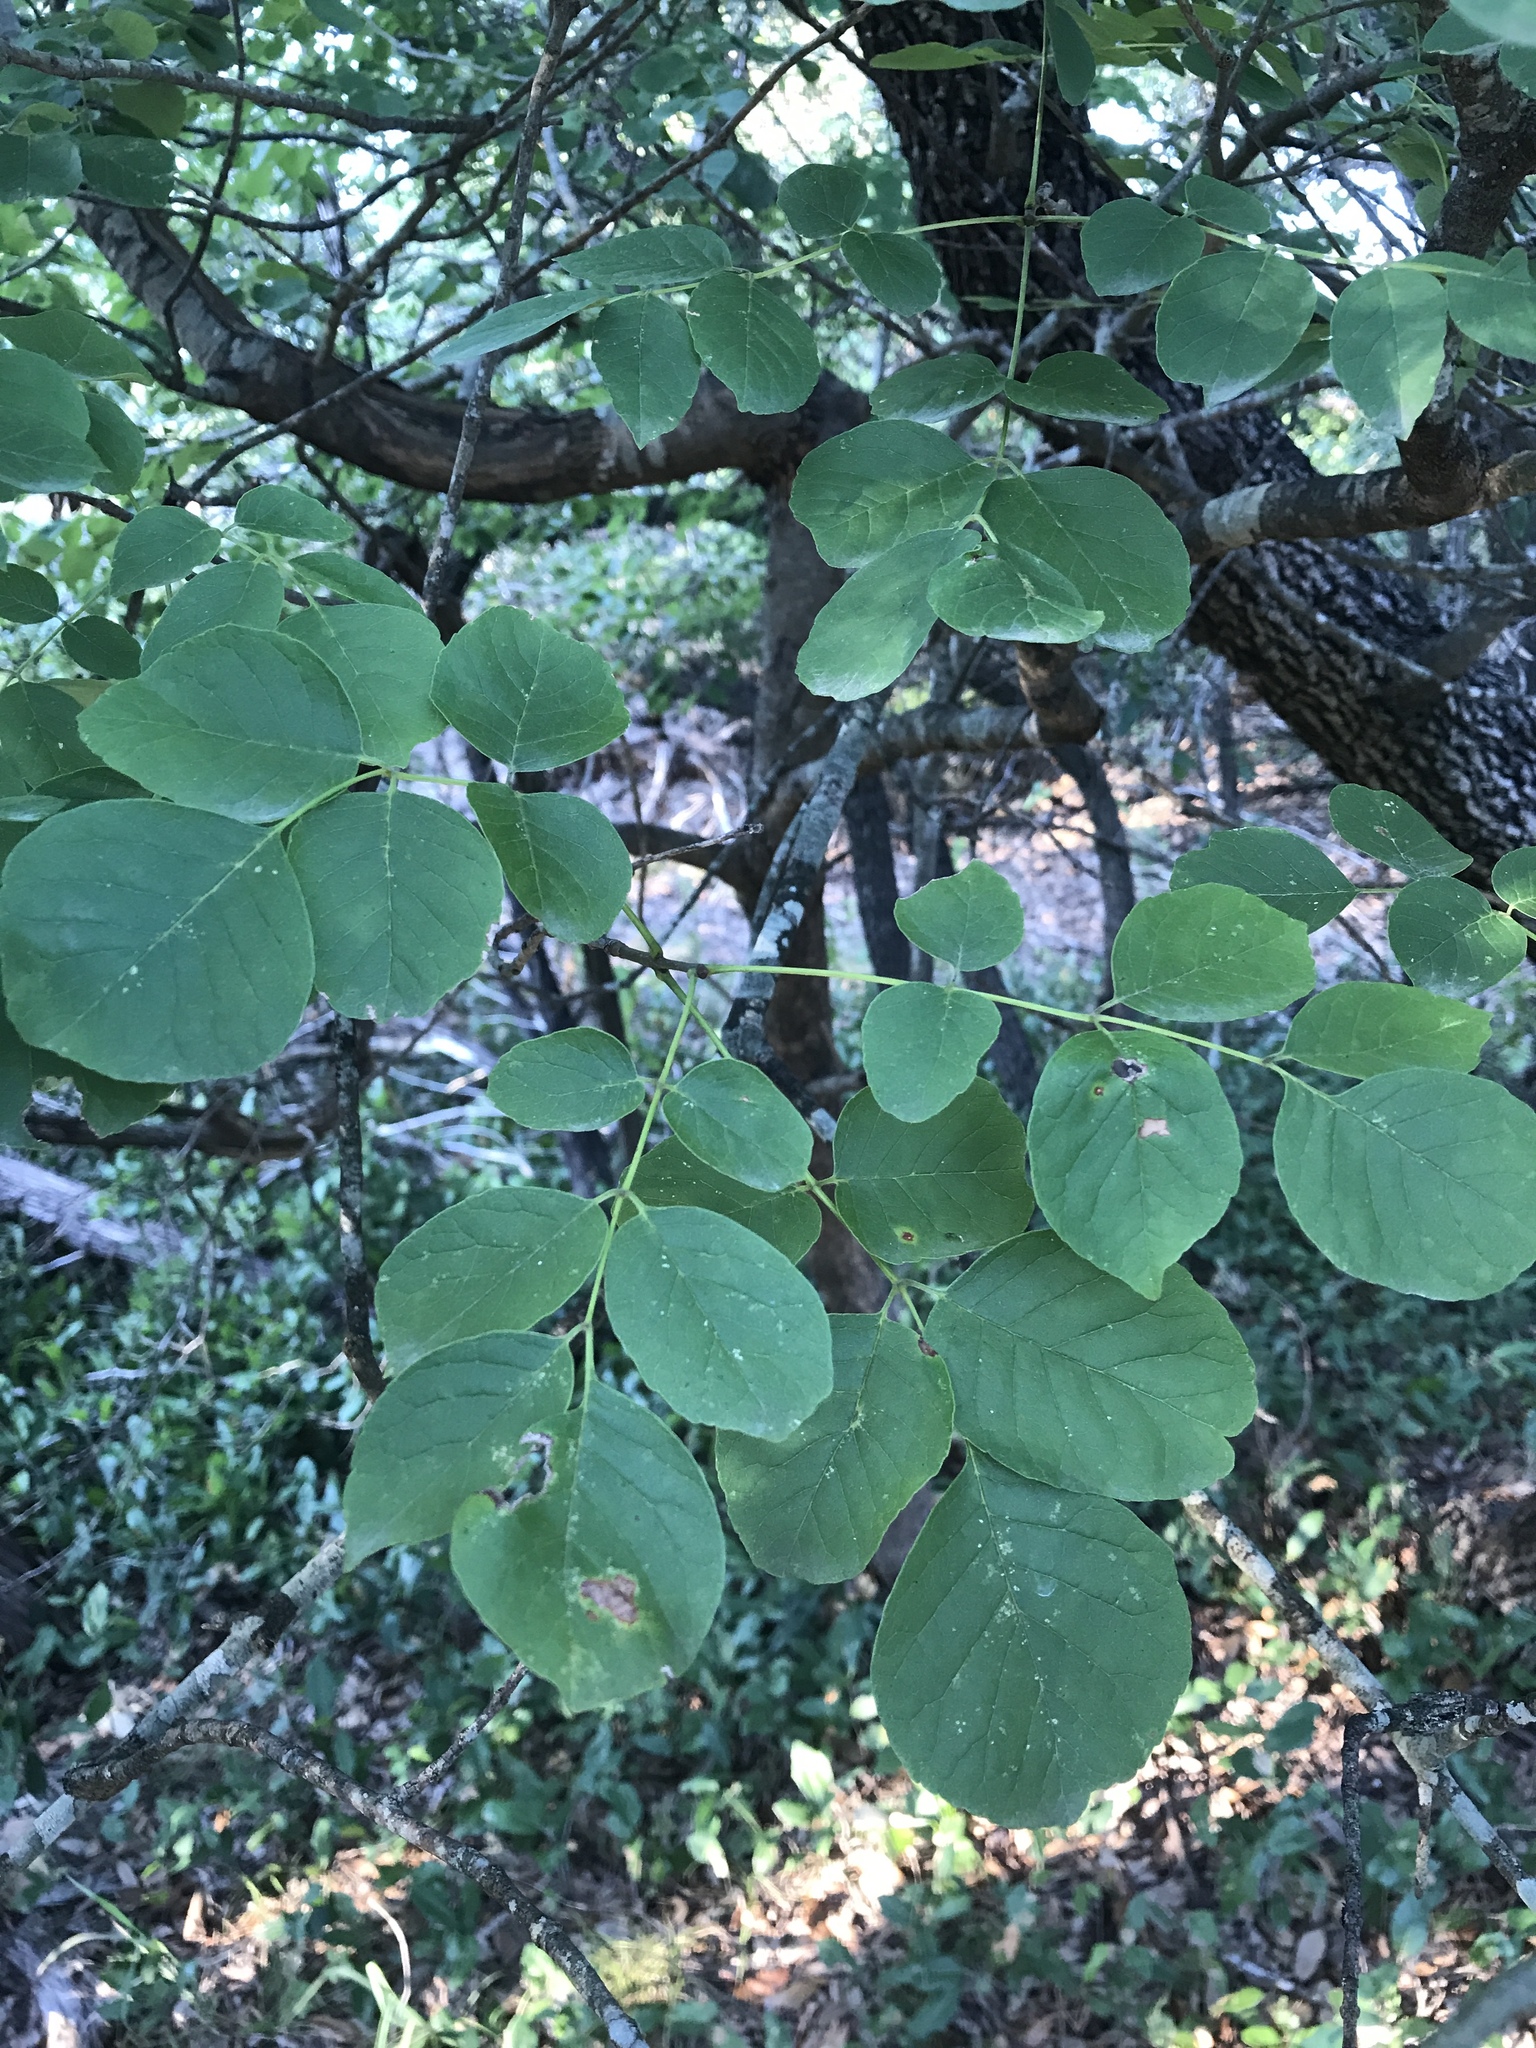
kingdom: Plantae
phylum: Tracheophyta
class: Magnoliopsida
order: Lamiales
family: Oleaceae
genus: Fraxinus
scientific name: Fraxinus albicans
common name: Texas ash
